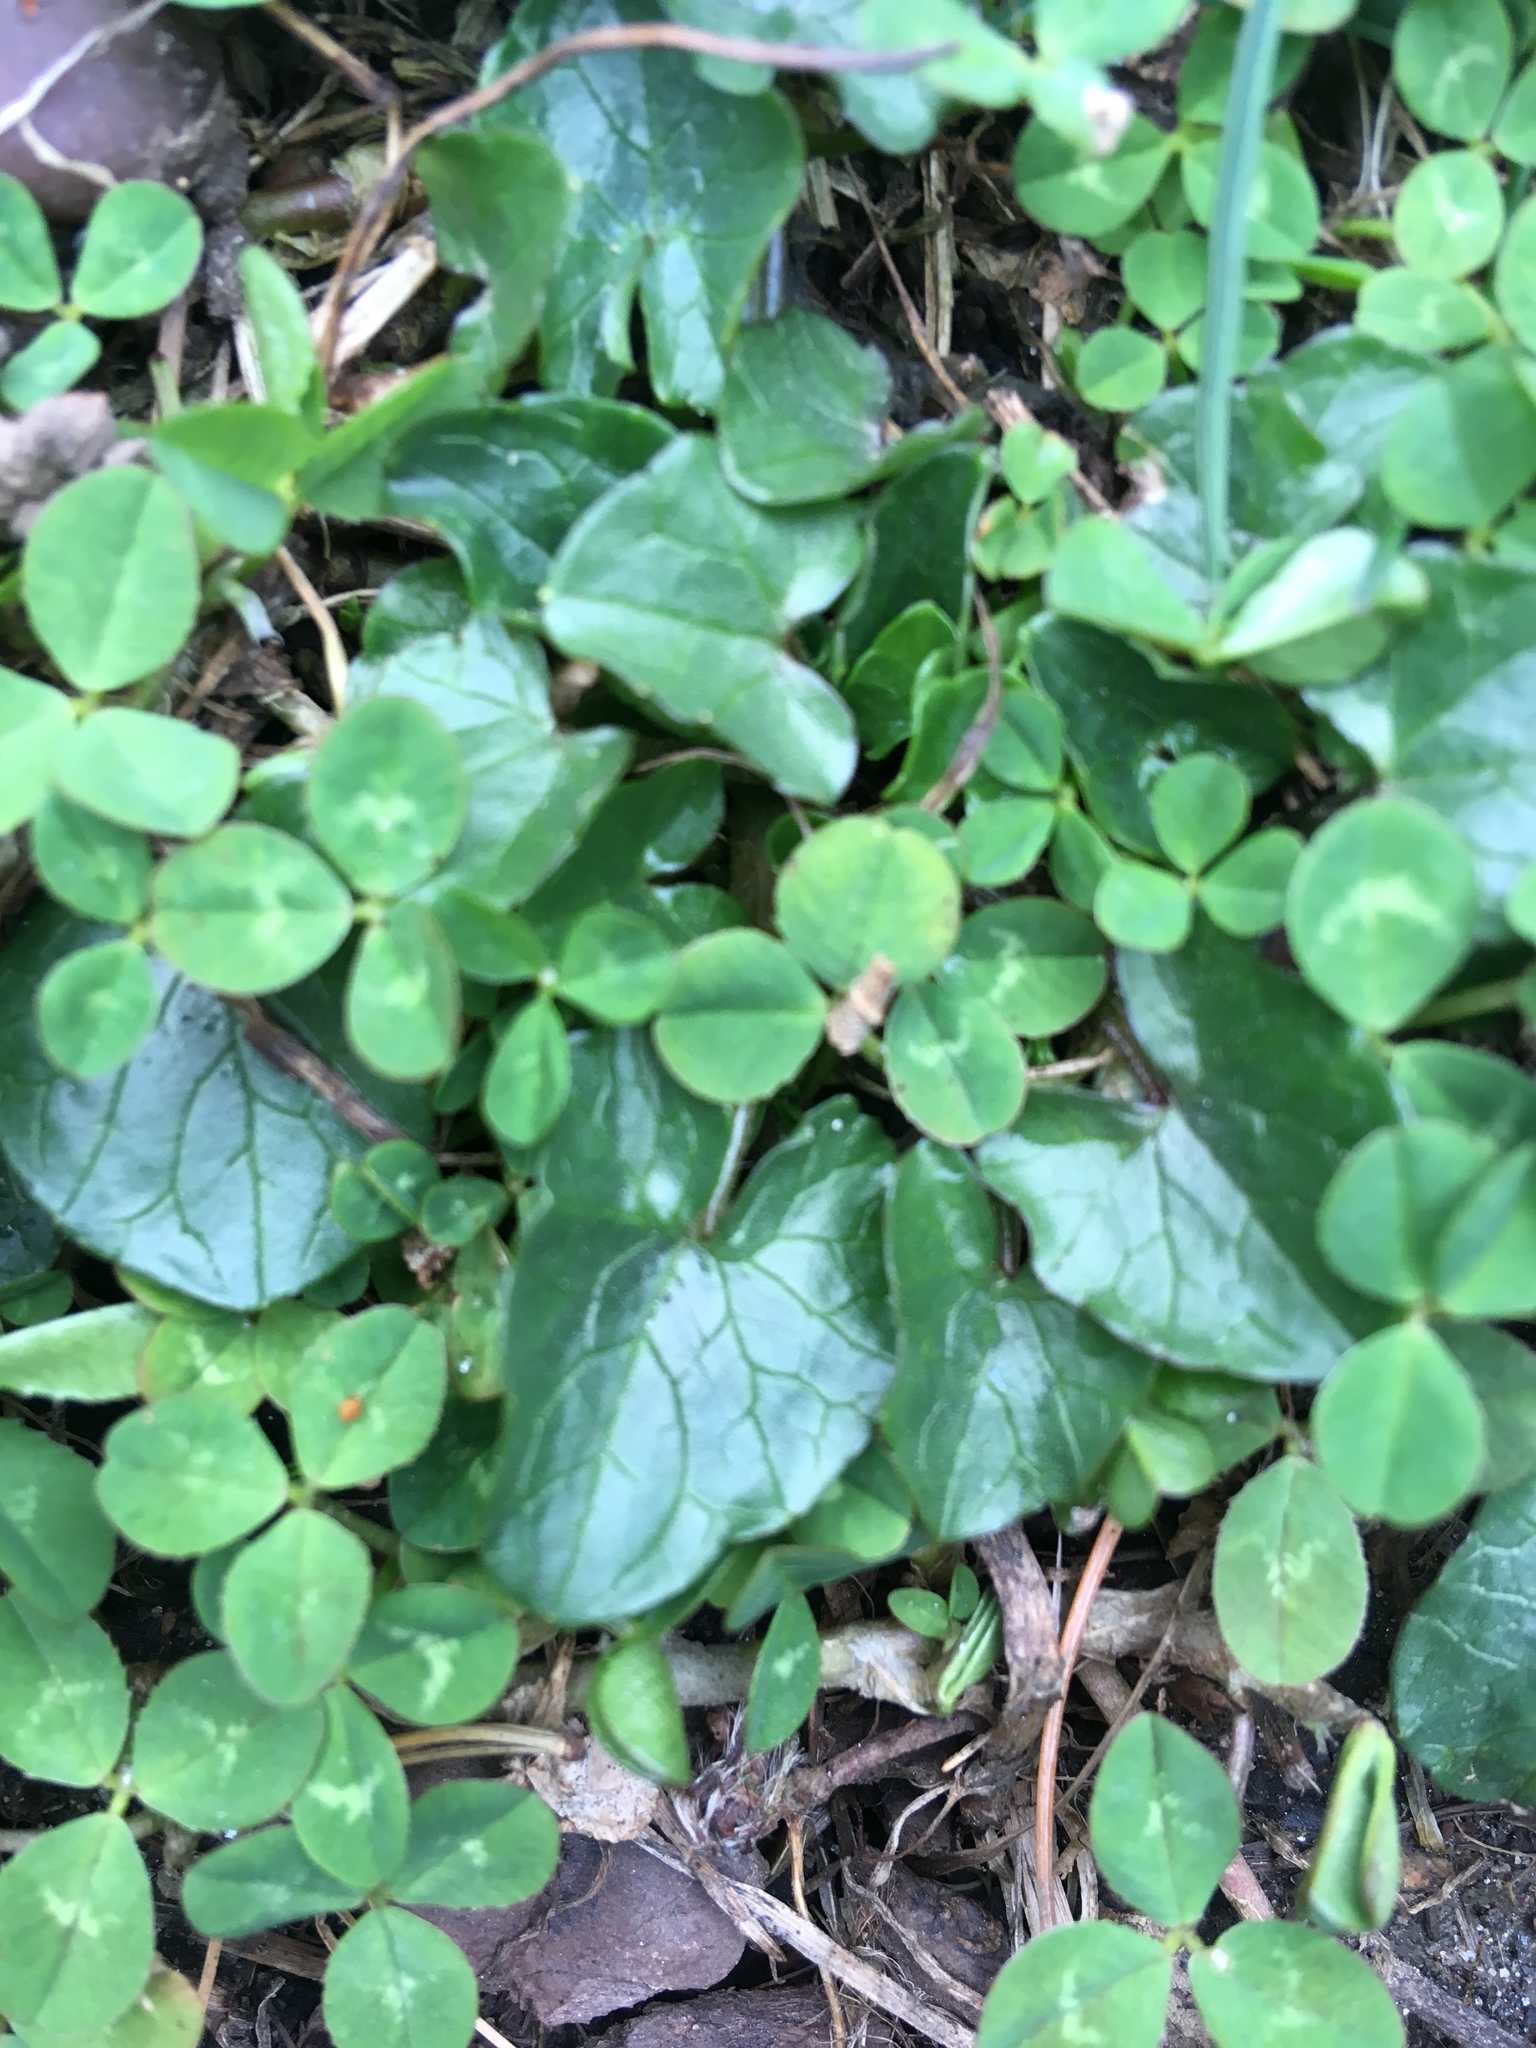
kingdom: Plantae
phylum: Tracheophyta
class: Magnoliopsida
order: Ranunculales
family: Ranunculaceae
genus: Ficaria
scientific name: Ficaria verna
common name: Lesser celandine
